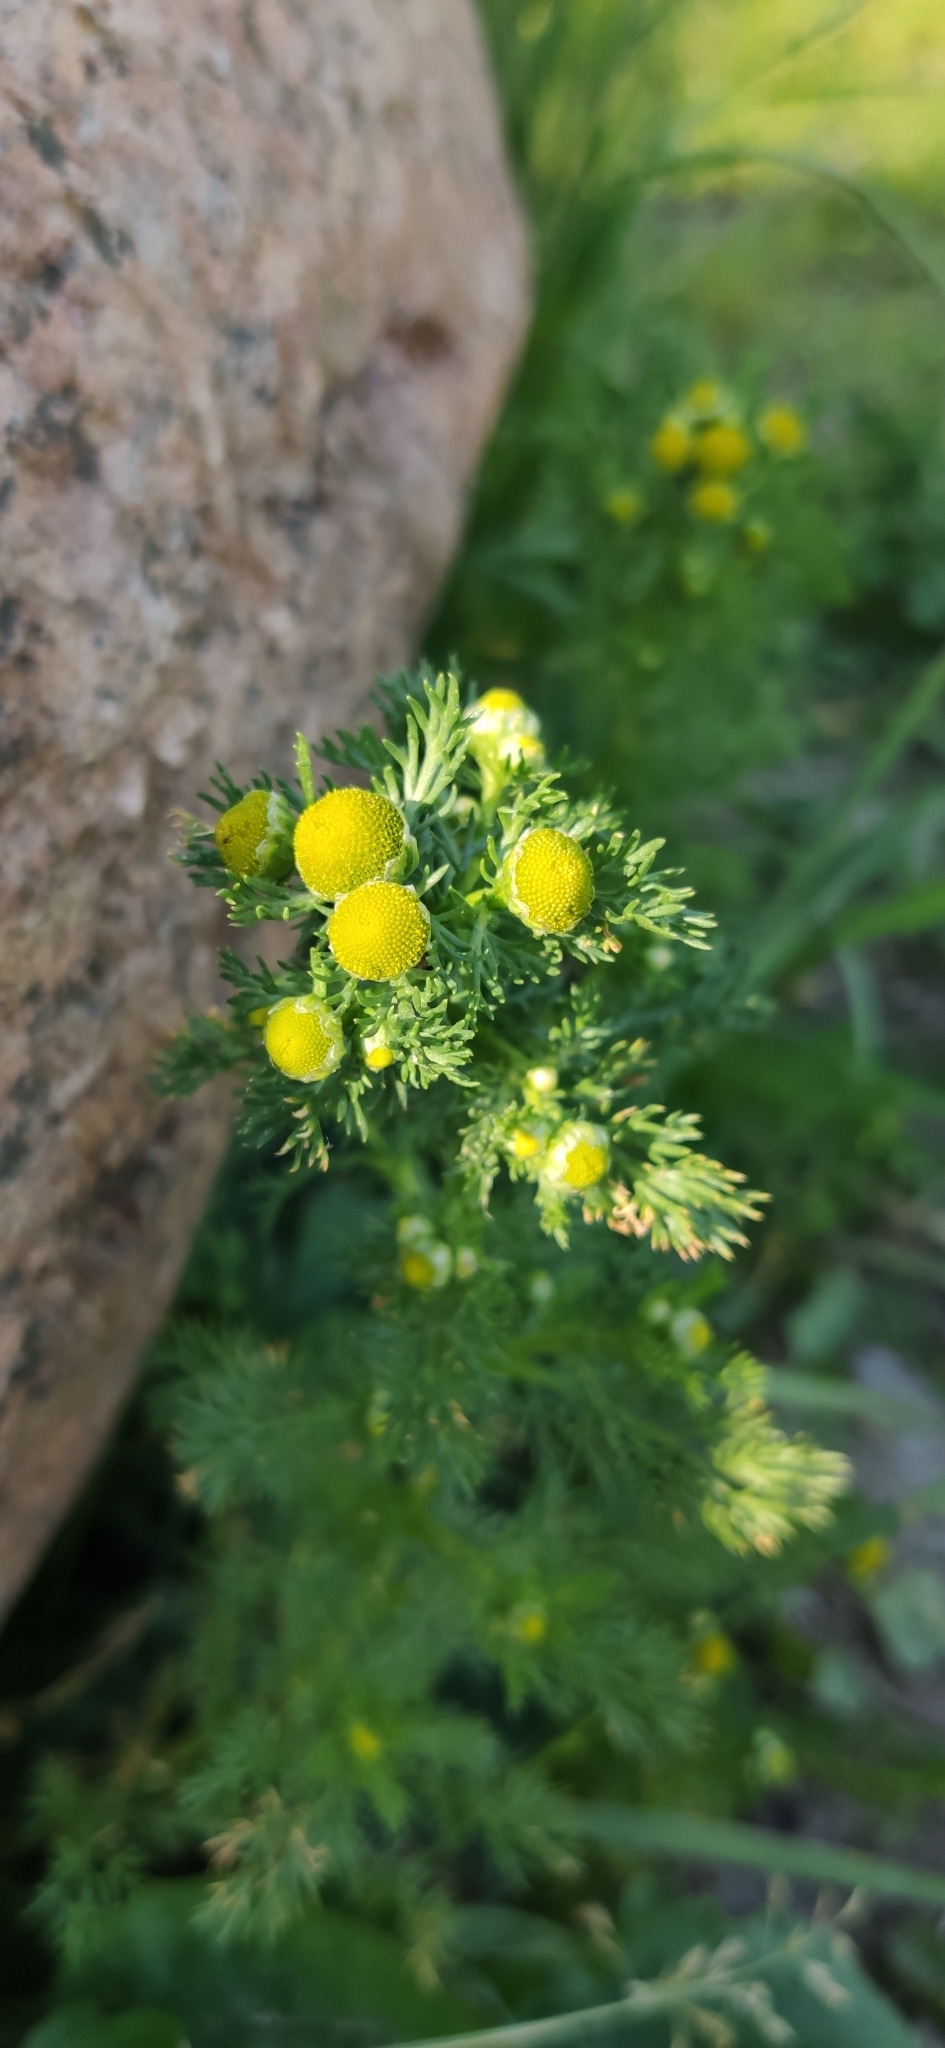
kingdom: Plantae
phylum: Tracheophyta
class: Magnoliopsida
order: Asterales
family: Asteraceae
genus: Matricaria
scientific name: Matricaria discoidea
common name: Disc mayweed
